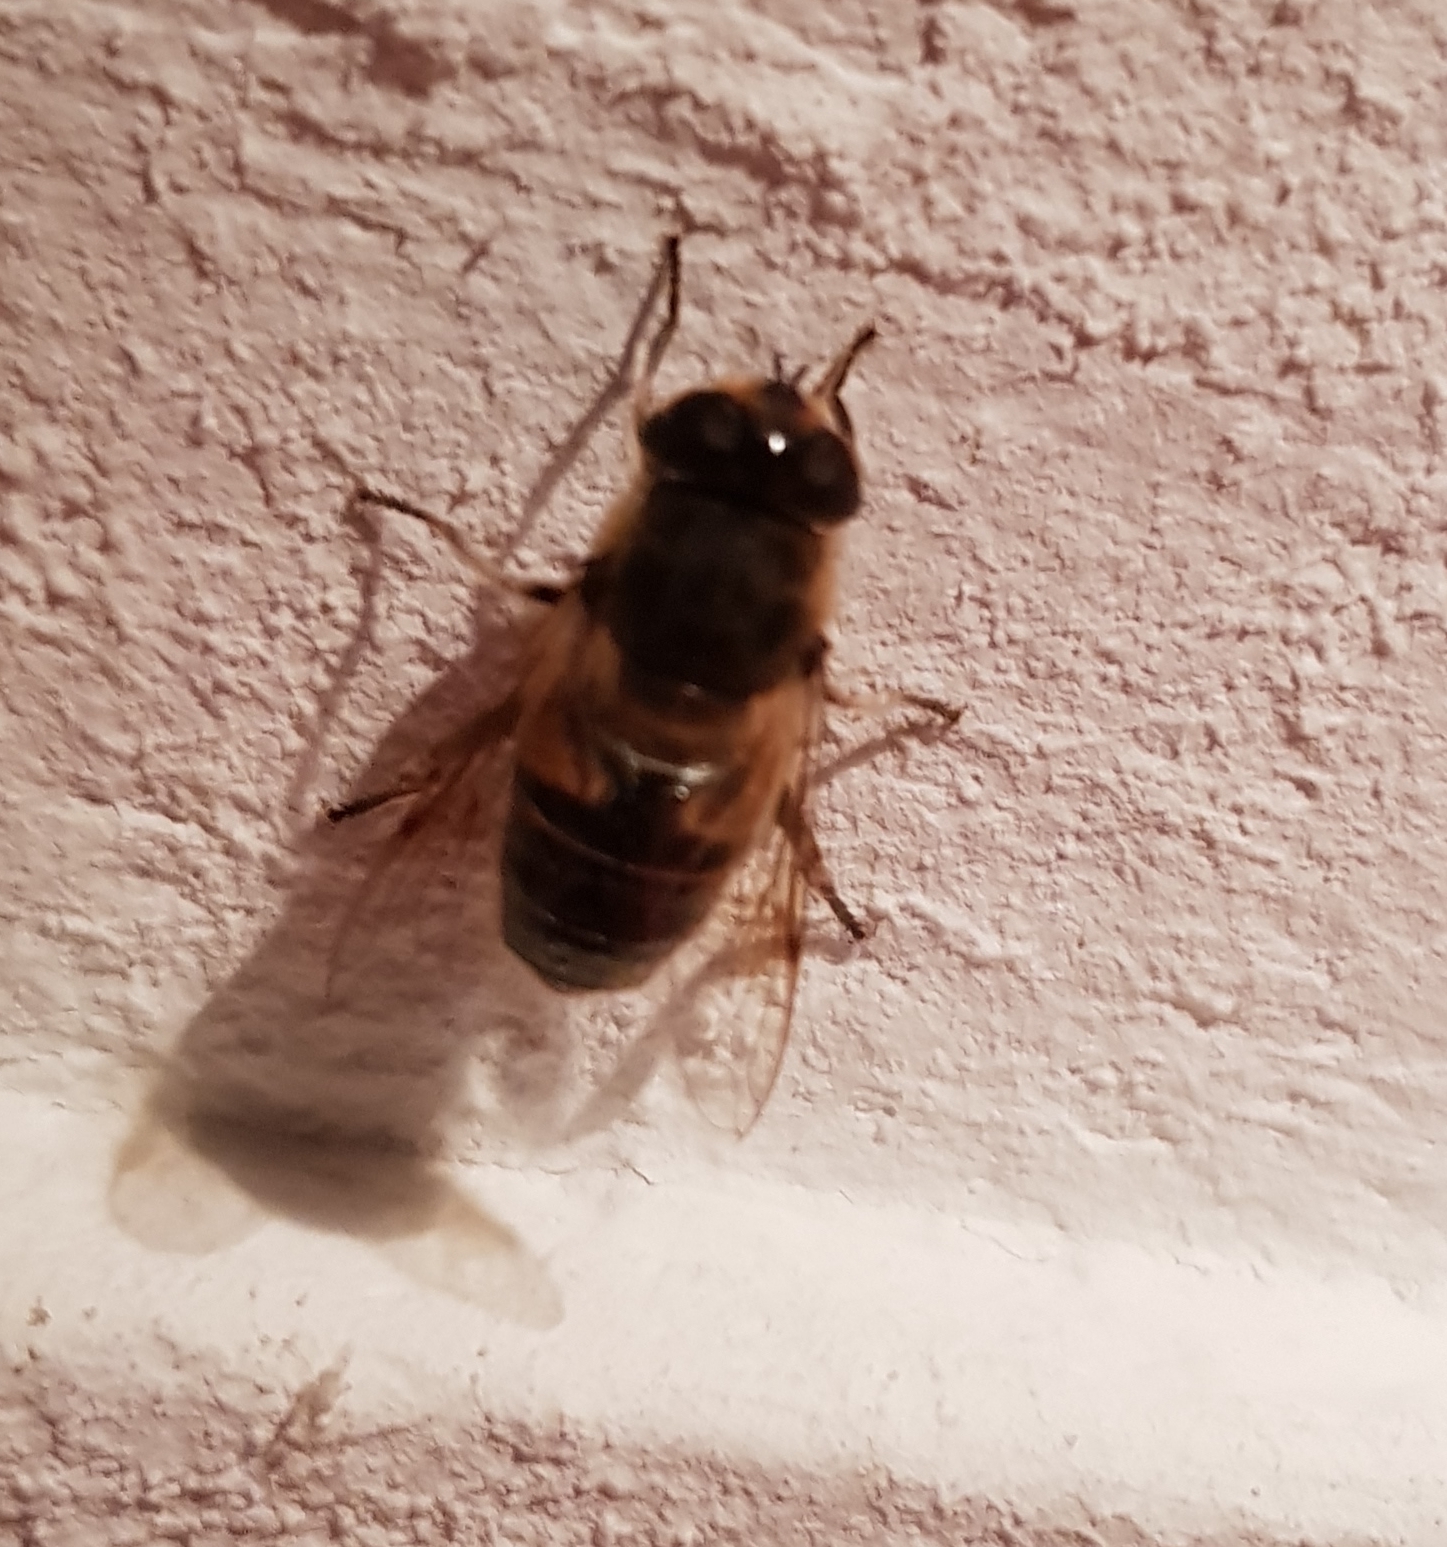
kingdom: Animalia
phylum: Arthropoda
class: Insecta
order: Diptera
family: Syrphidae
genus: Eristalis
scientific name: Eristalis tenax
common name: Drone fly
